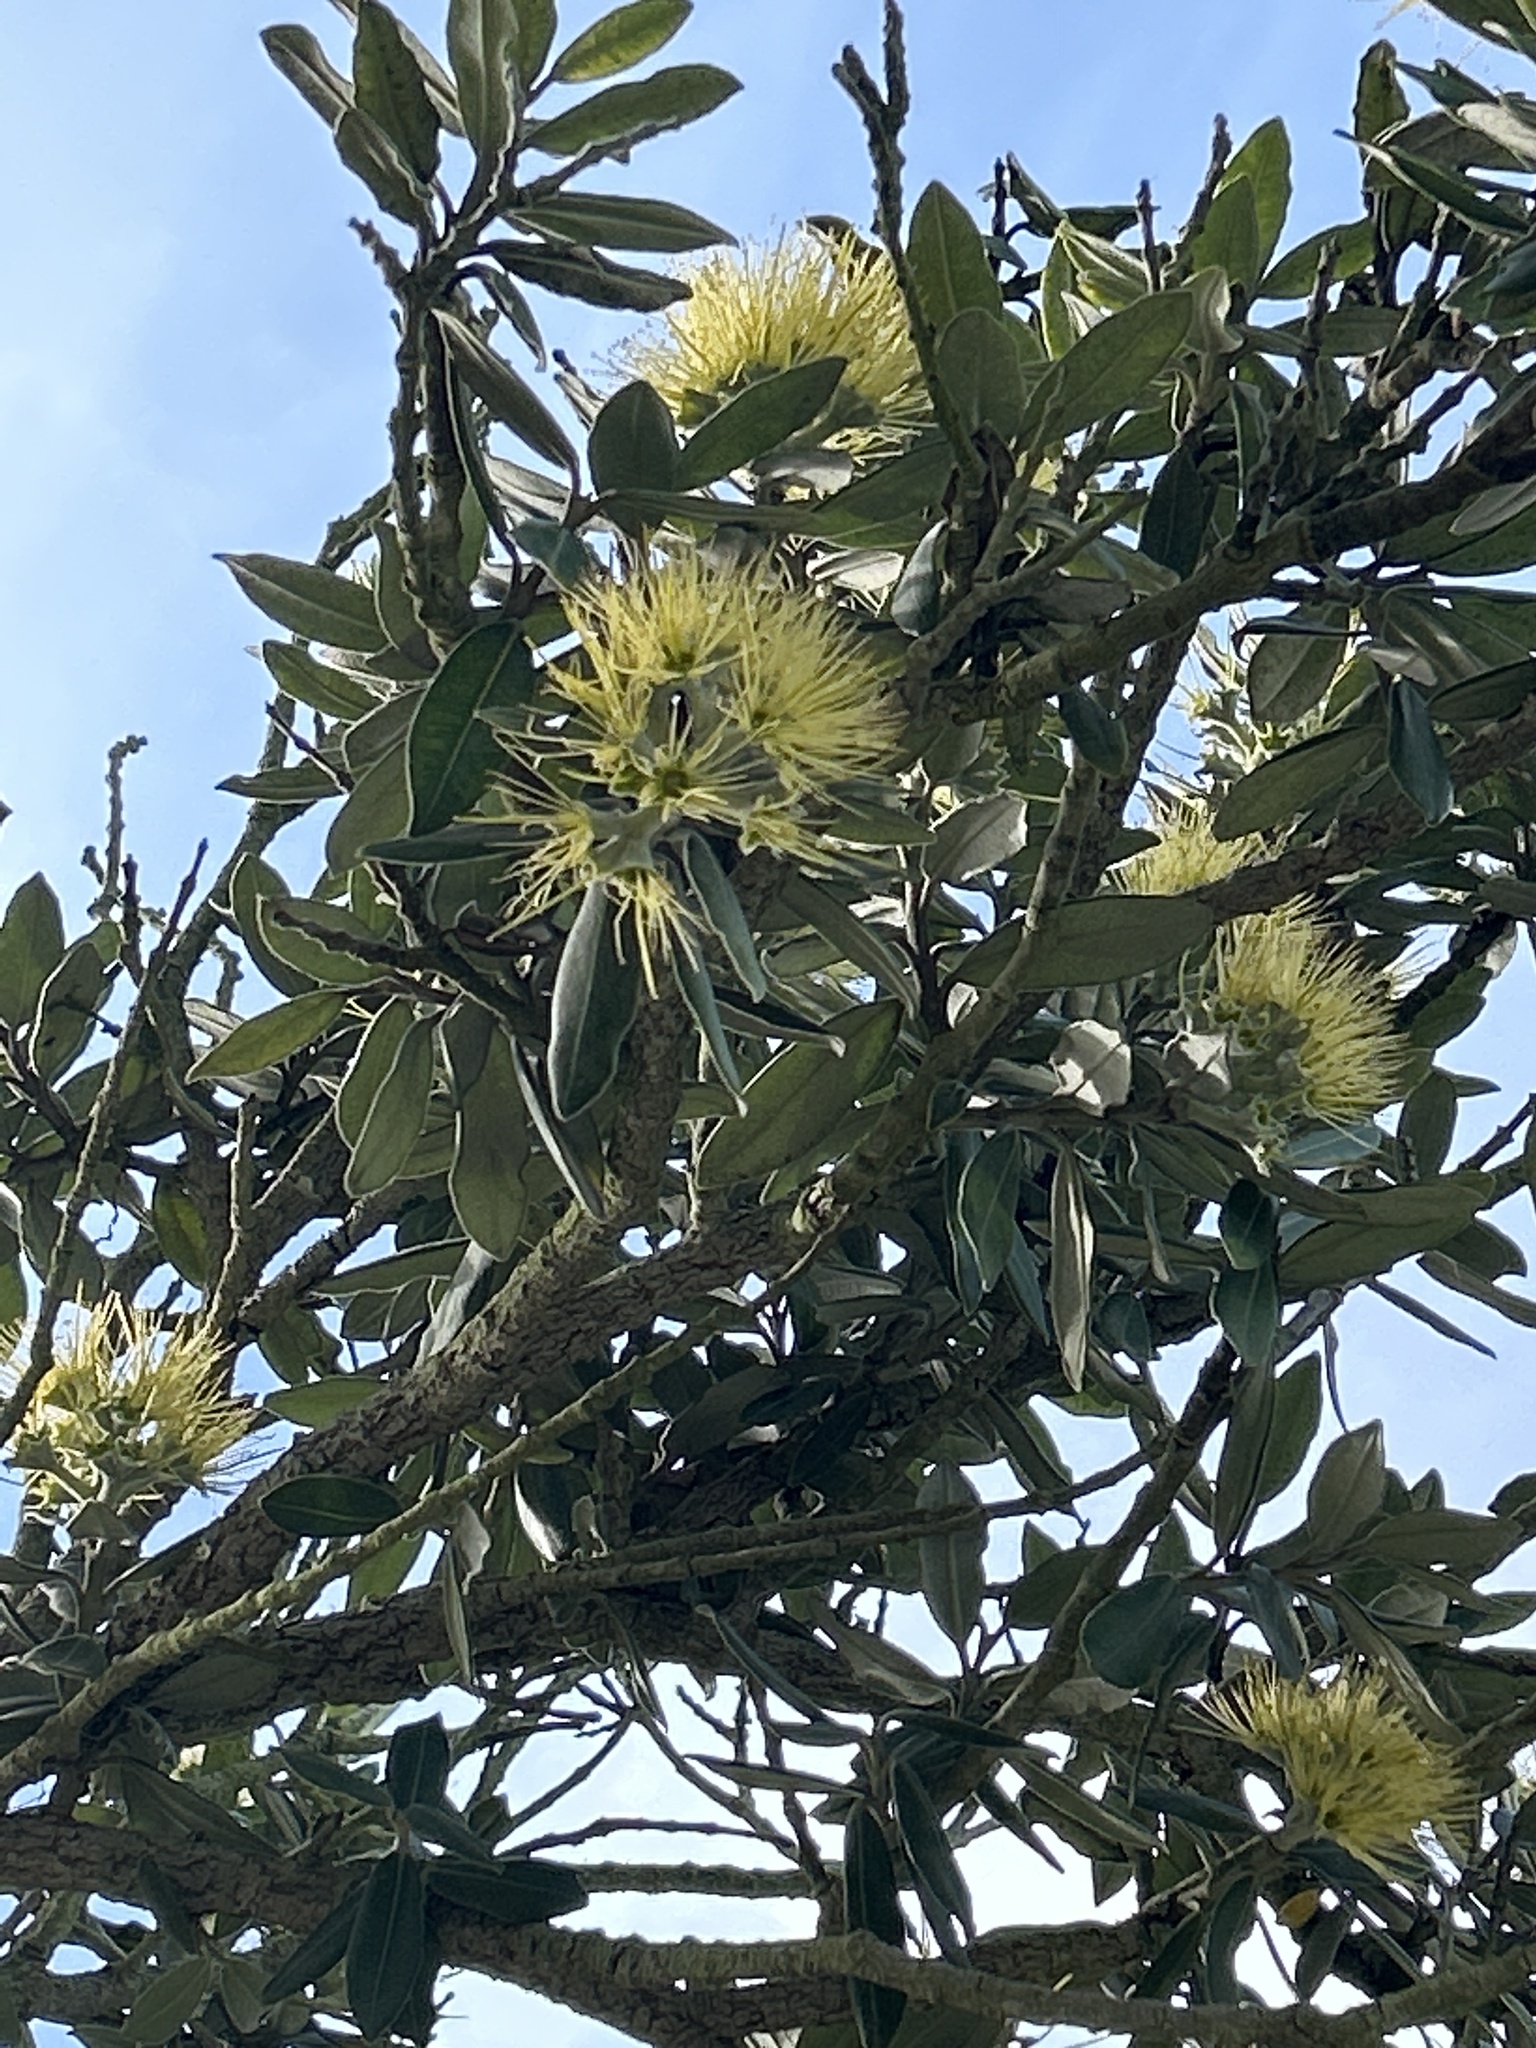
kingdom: Plantae
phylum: Tracheophyta
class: Magnoliopsida
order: Myrtales
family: Myrtaceae
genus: Metrosideros
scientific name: Metrosideros excelsa
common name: New zealand christmastree
